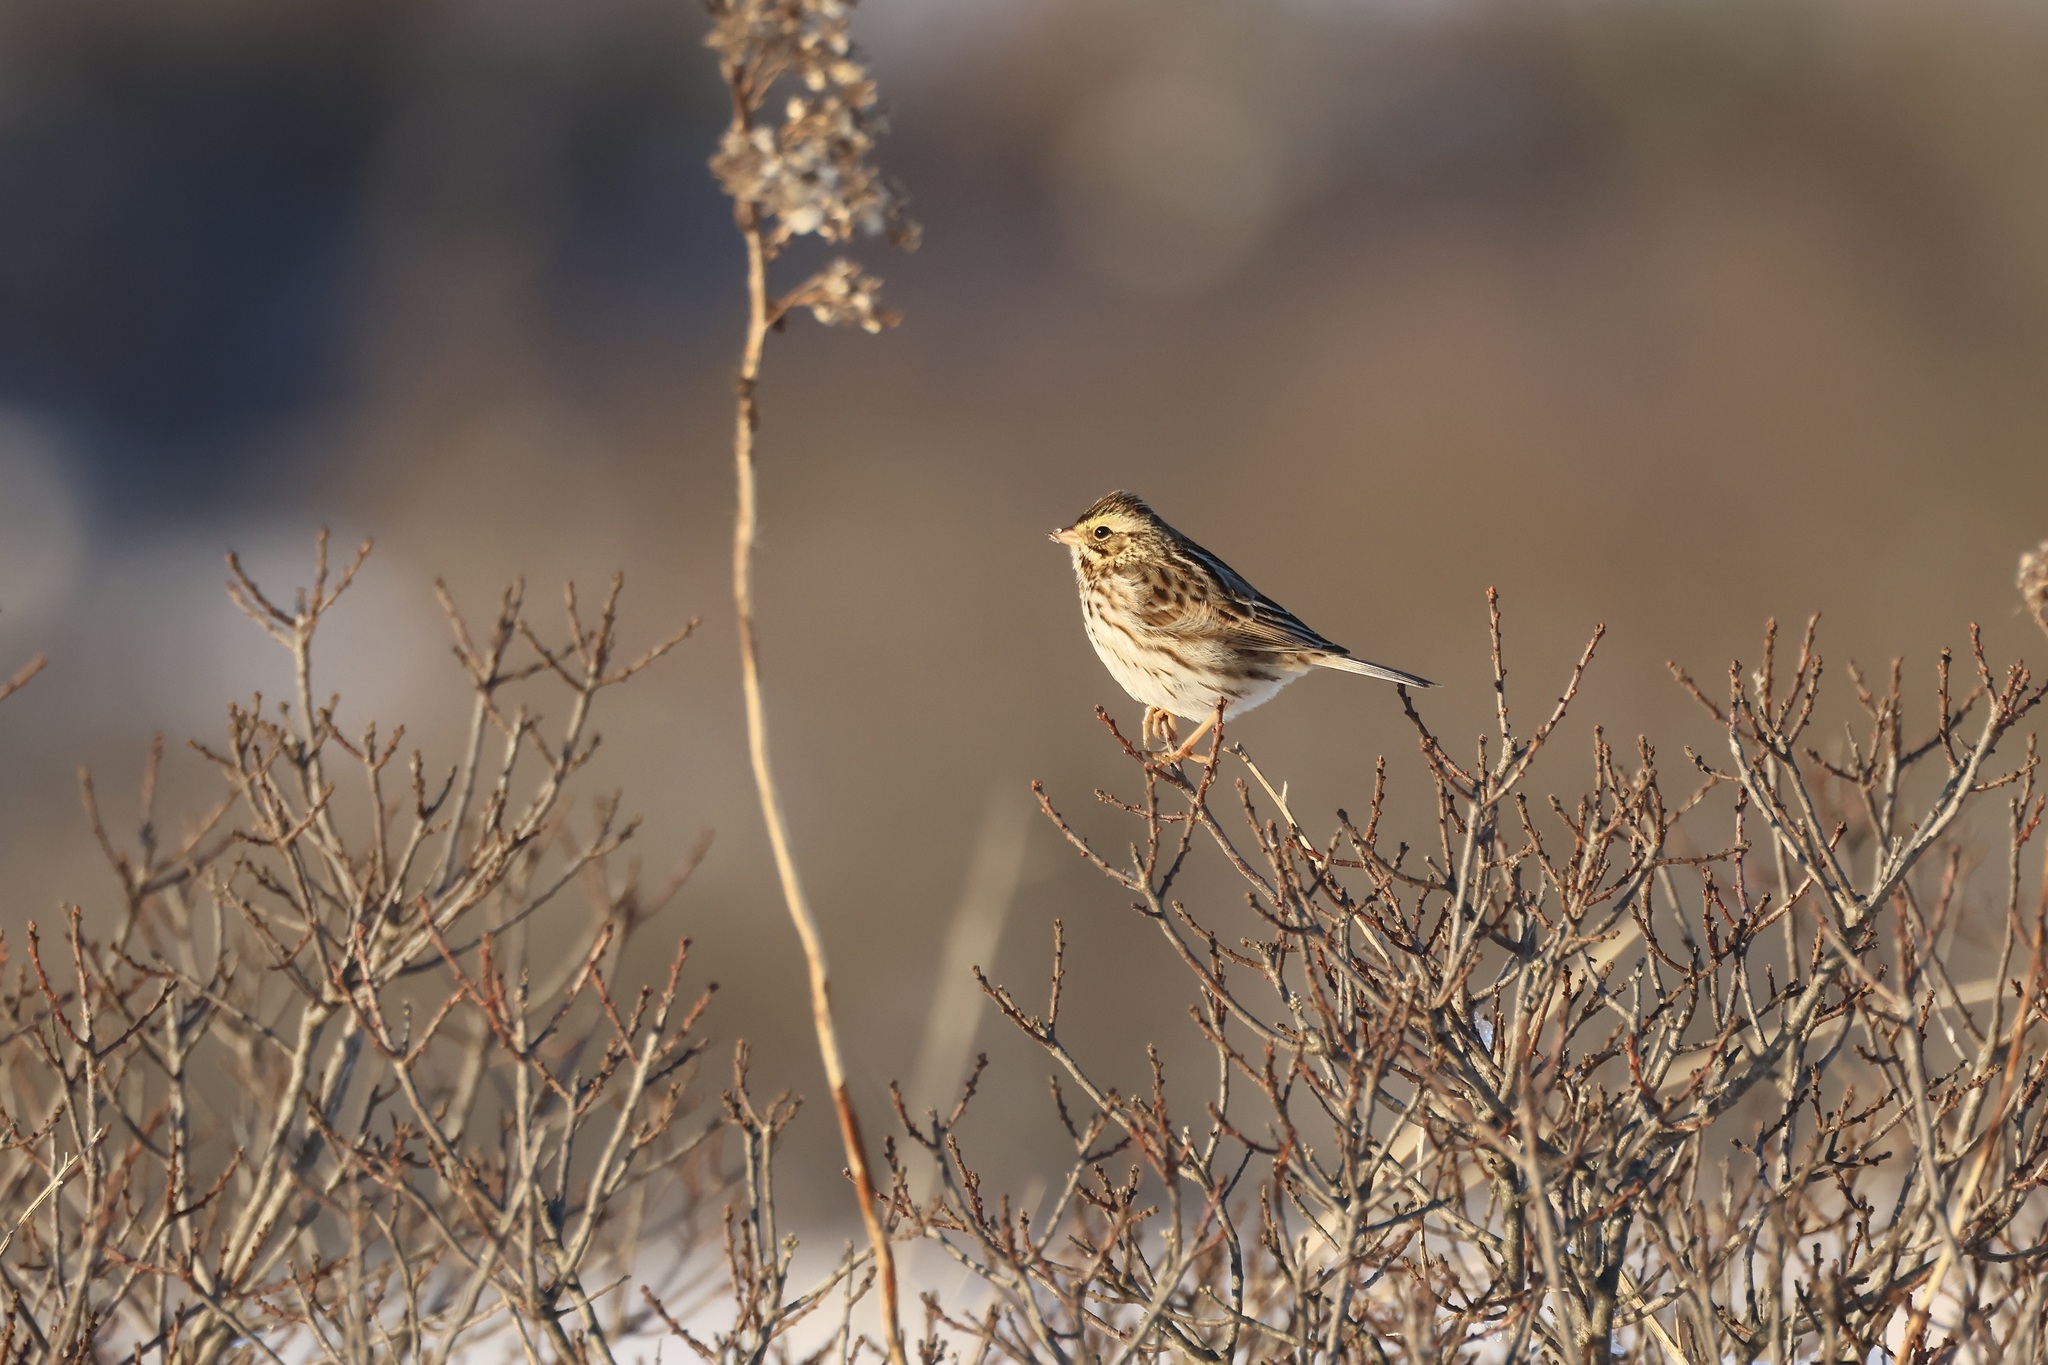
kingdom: Animalia
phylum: Chordata
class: Aves
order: Passeriformes
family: Passerellidae
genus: Passerculus
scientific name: Passerculus sandwichensis
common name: Savannah sparrow
